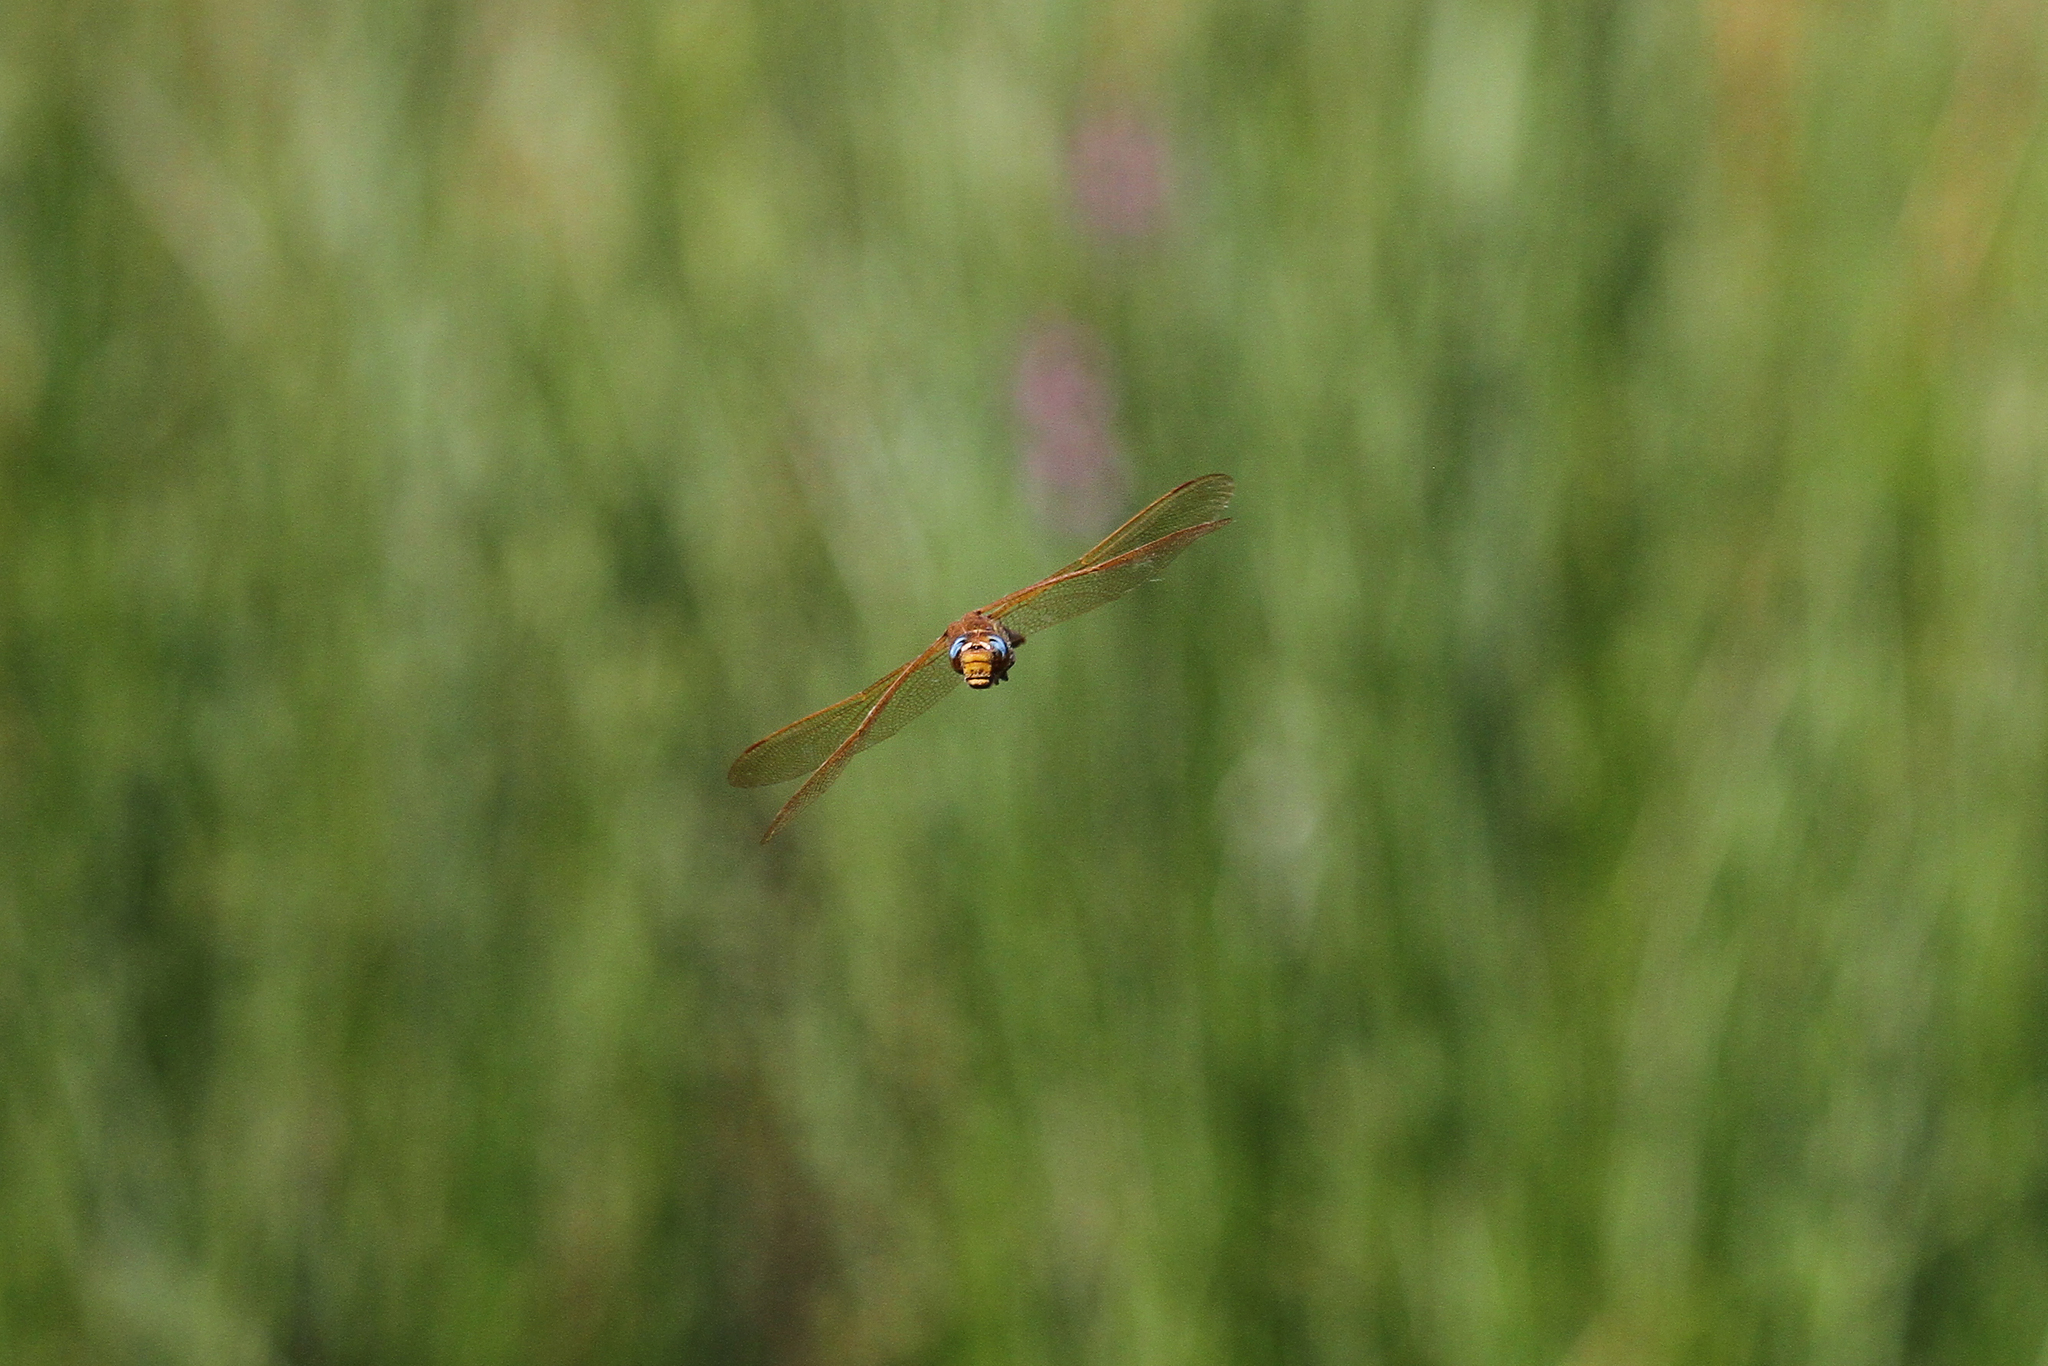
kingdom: Animalia
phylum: Arthropoda
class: Insecta
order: Odonata
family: Aeshnidae
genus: Aeshna
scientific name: Aeshna grandis
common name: Brown hawker
